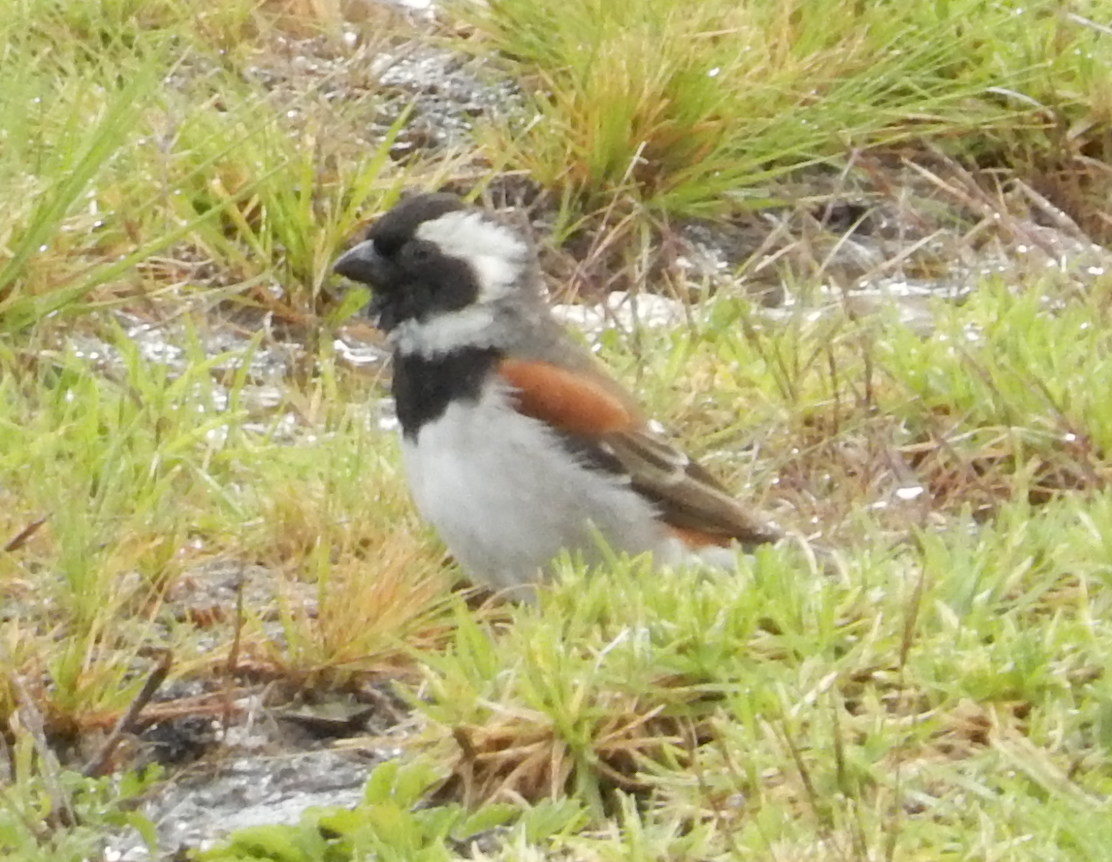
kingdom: Animalia
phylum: Chordata
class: Aves
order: Passeriformes
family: Passeridae
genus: Passer
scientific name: Passer melanurus
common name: Cape sparrow
